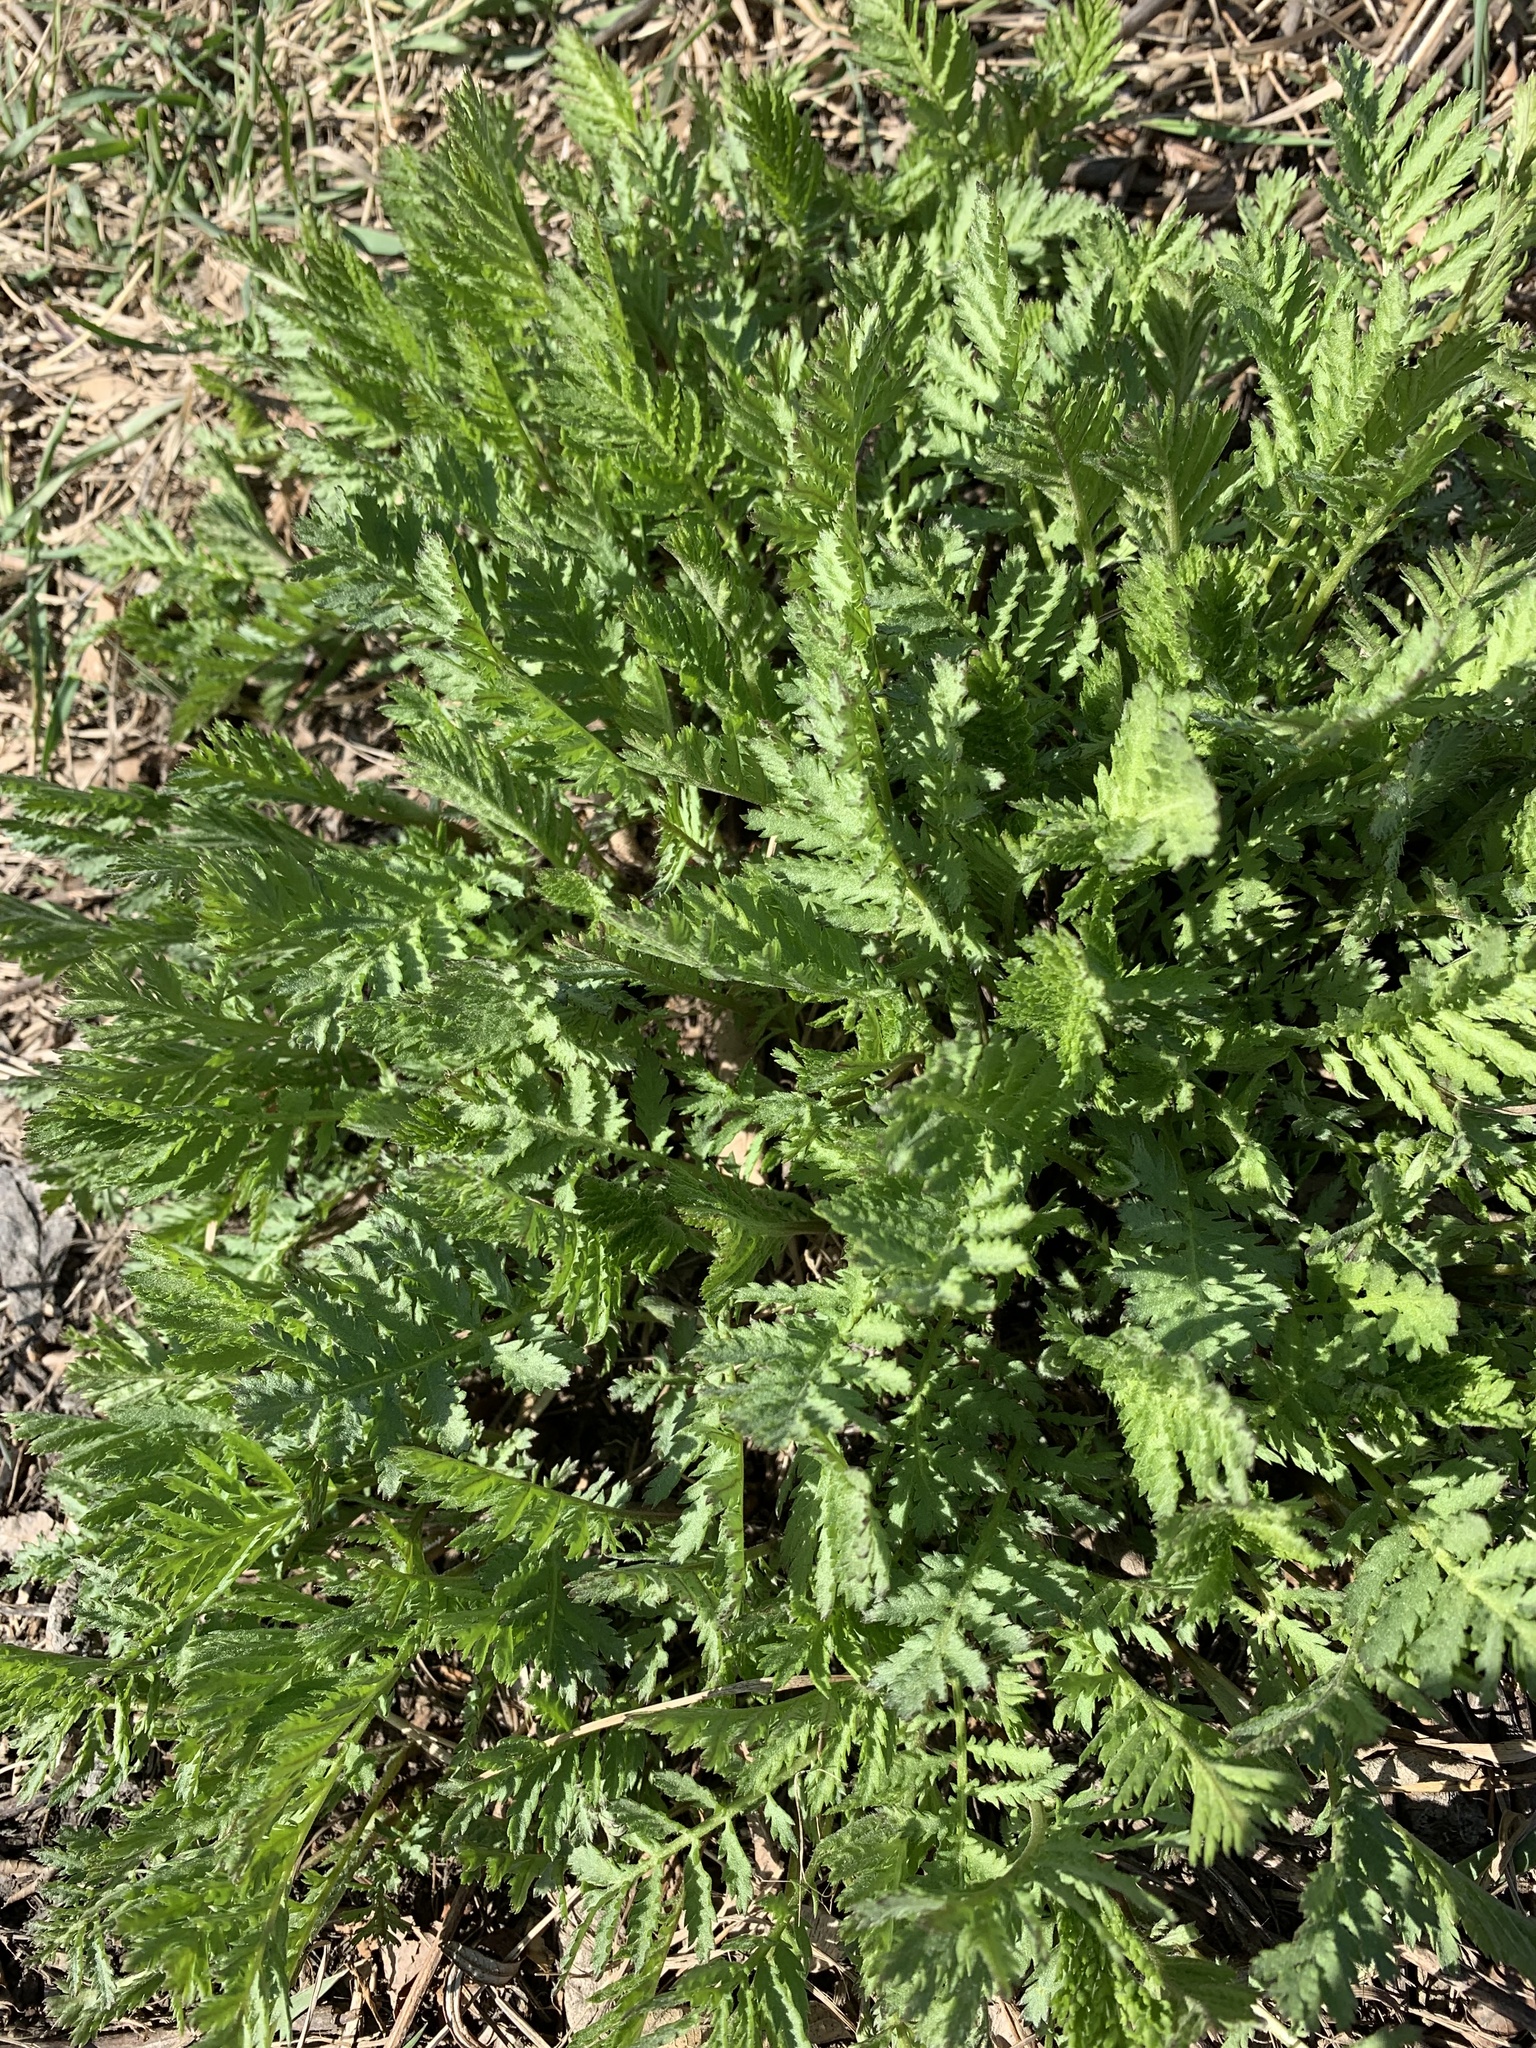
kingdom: Plantae
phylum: Tracheophyta
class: Magnoliopsida
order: Asterales
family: Asteraceae
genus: Tanacetum
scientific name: Tanacetum vulgare
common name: Common tansy
